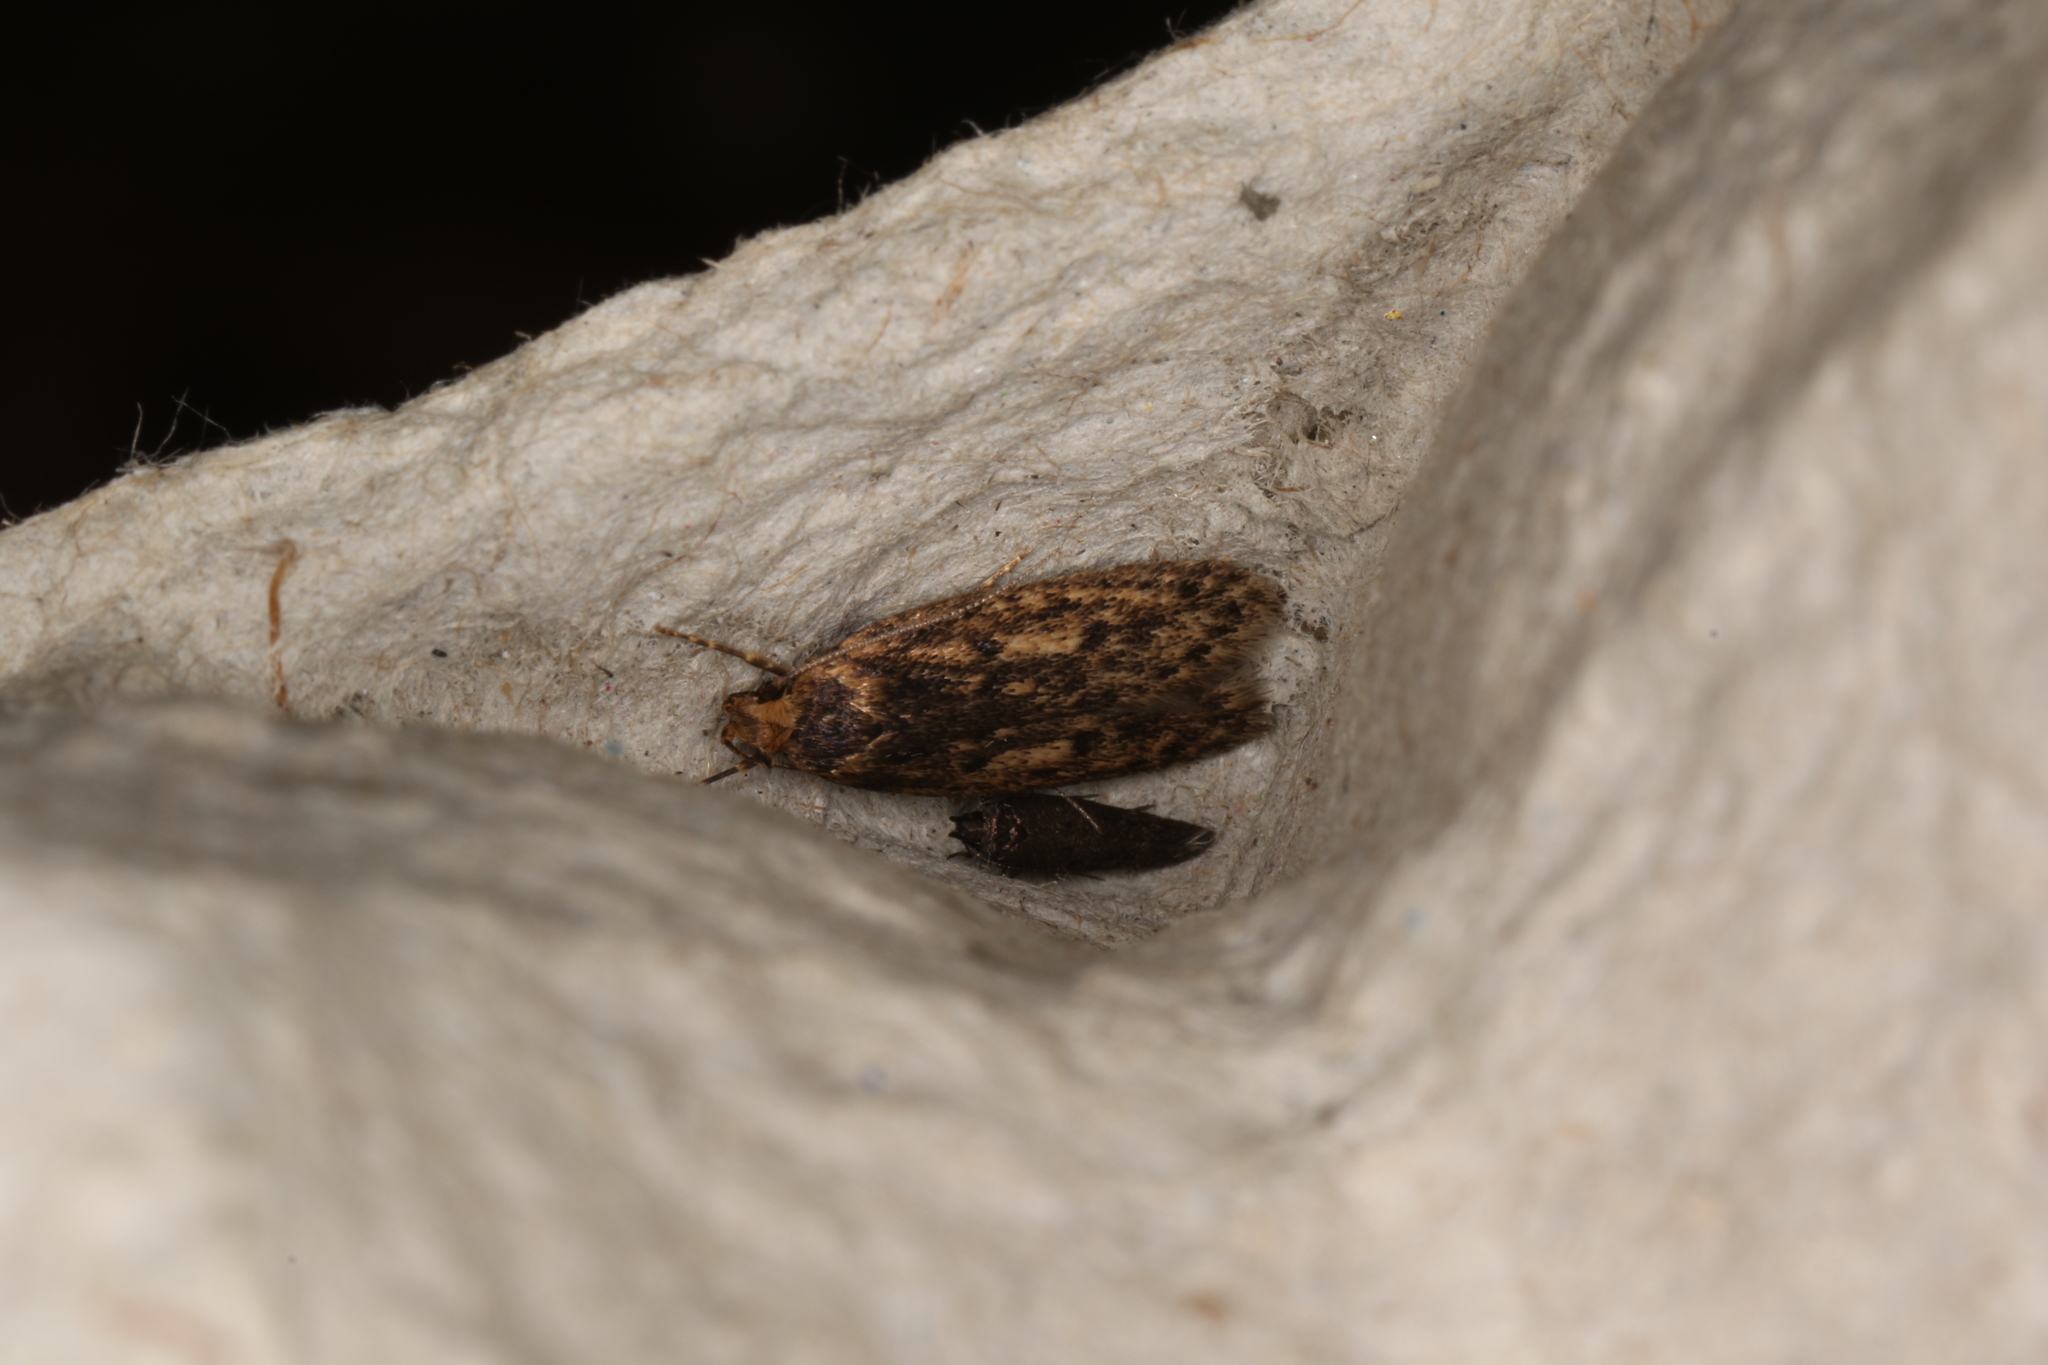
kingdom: Animalia
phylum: Arthropoda
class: Insecta
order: Lepidoptera
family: Oecophoridae
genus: Hofmannophila
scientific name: Hofmannophila pseudospretella
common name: Brown house moth
